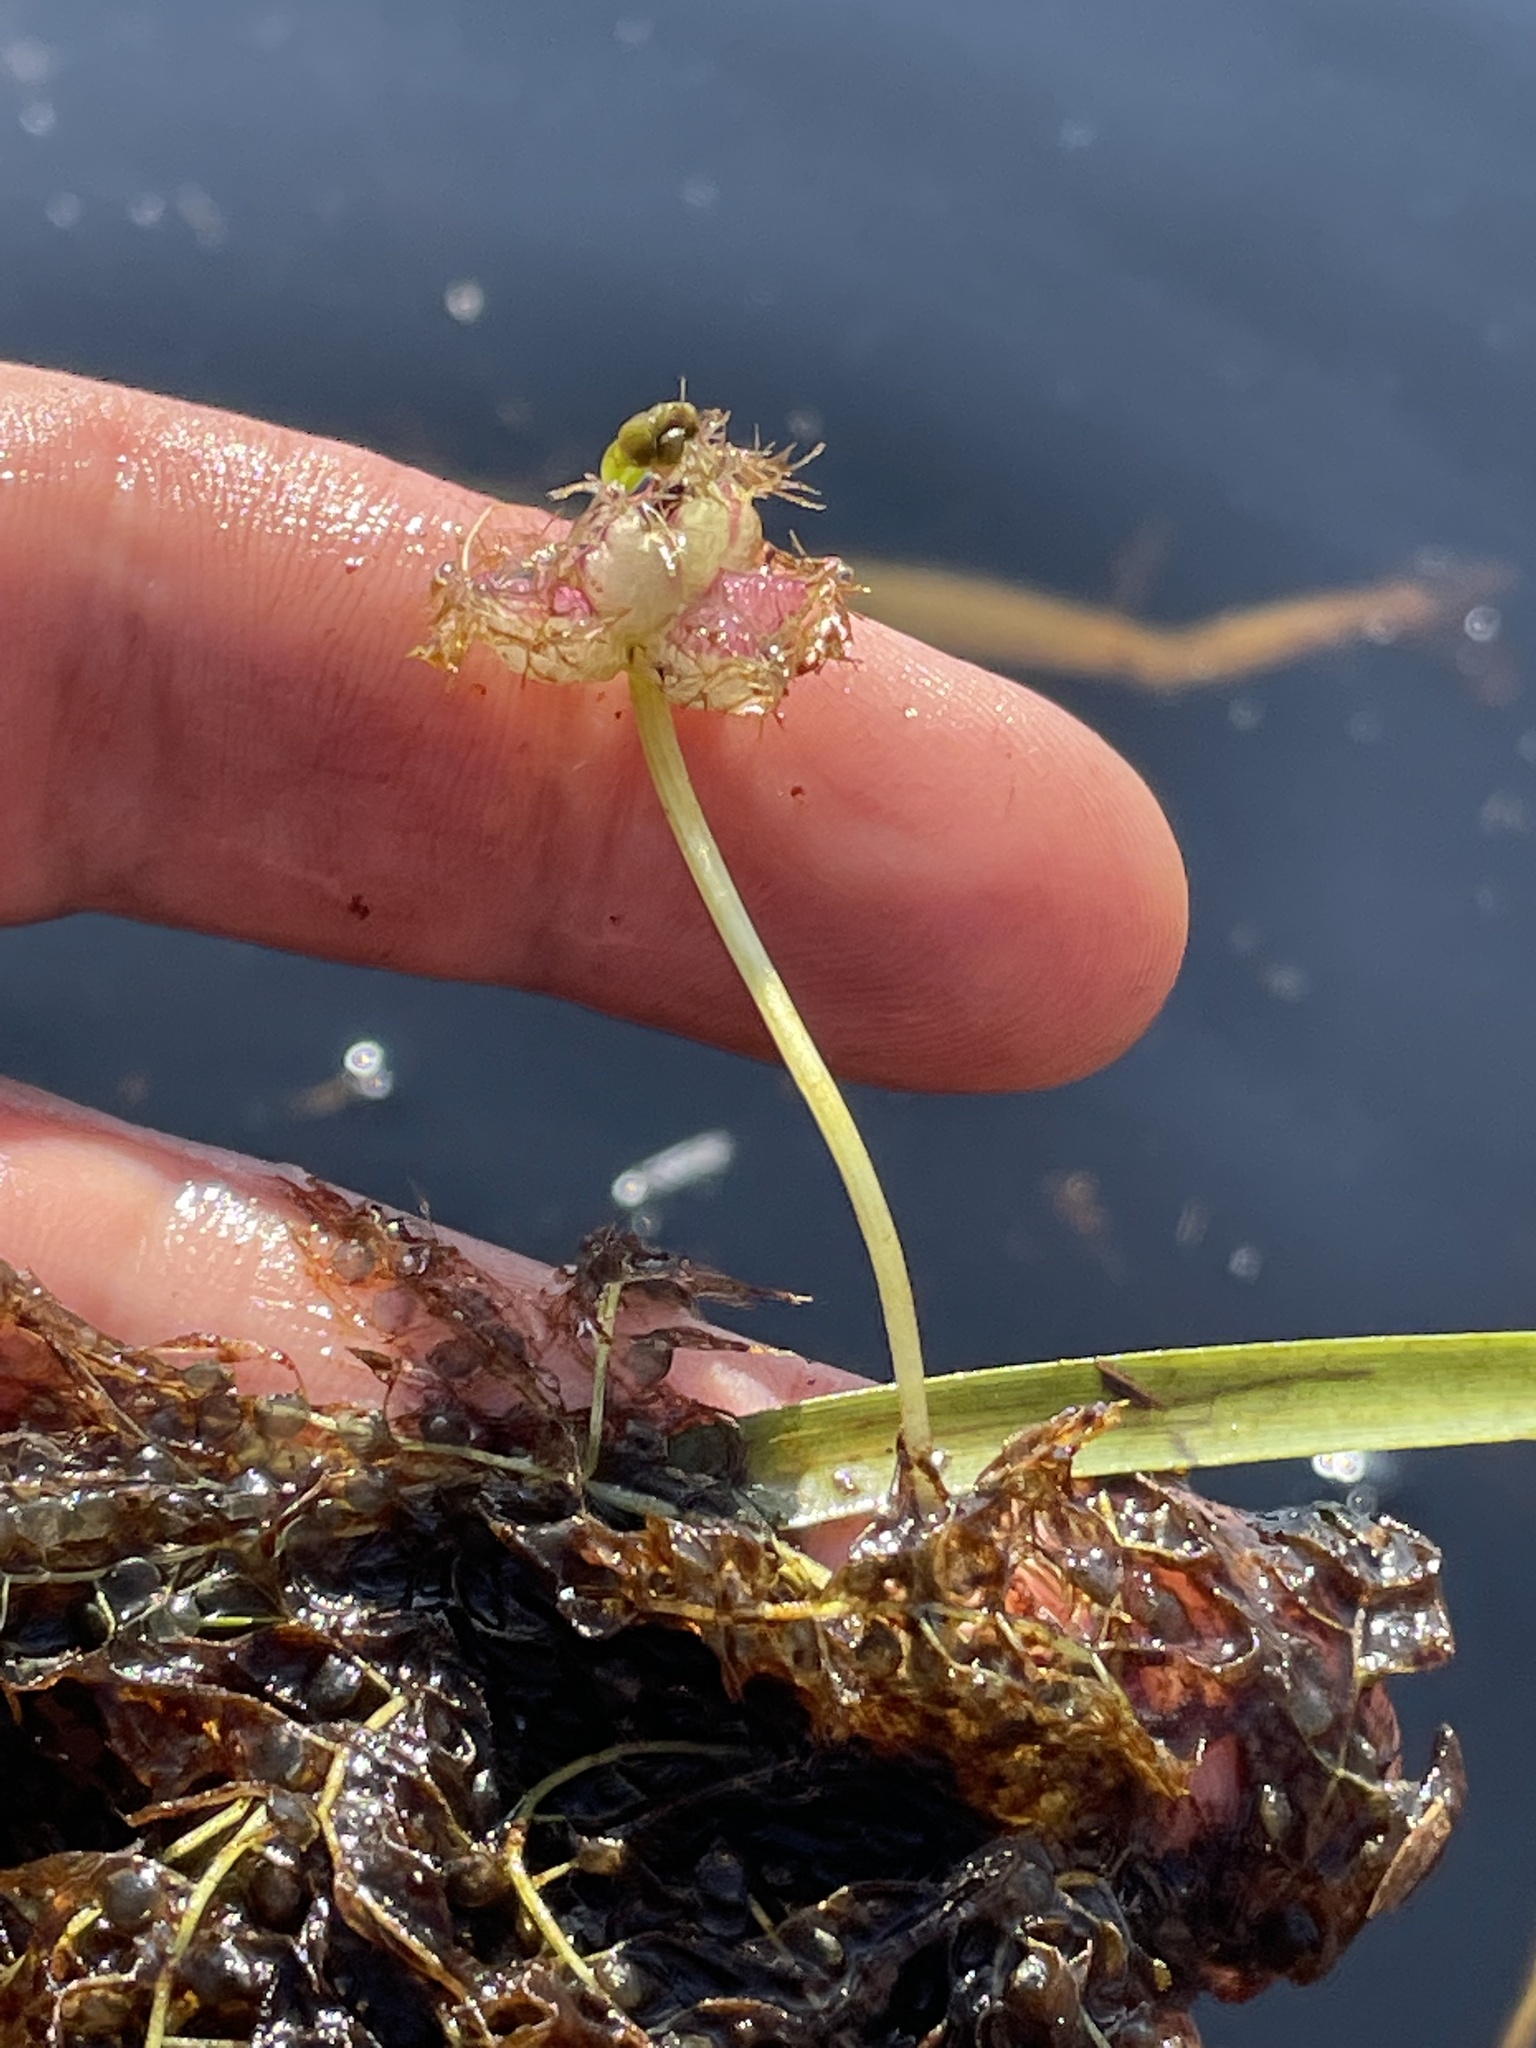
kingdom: Plantae
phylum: Tracheophyta
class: Magnoliopsida
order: Lamiales
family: Lentibulariaceae
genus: Utricularia
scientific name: Utricularia stellaris
